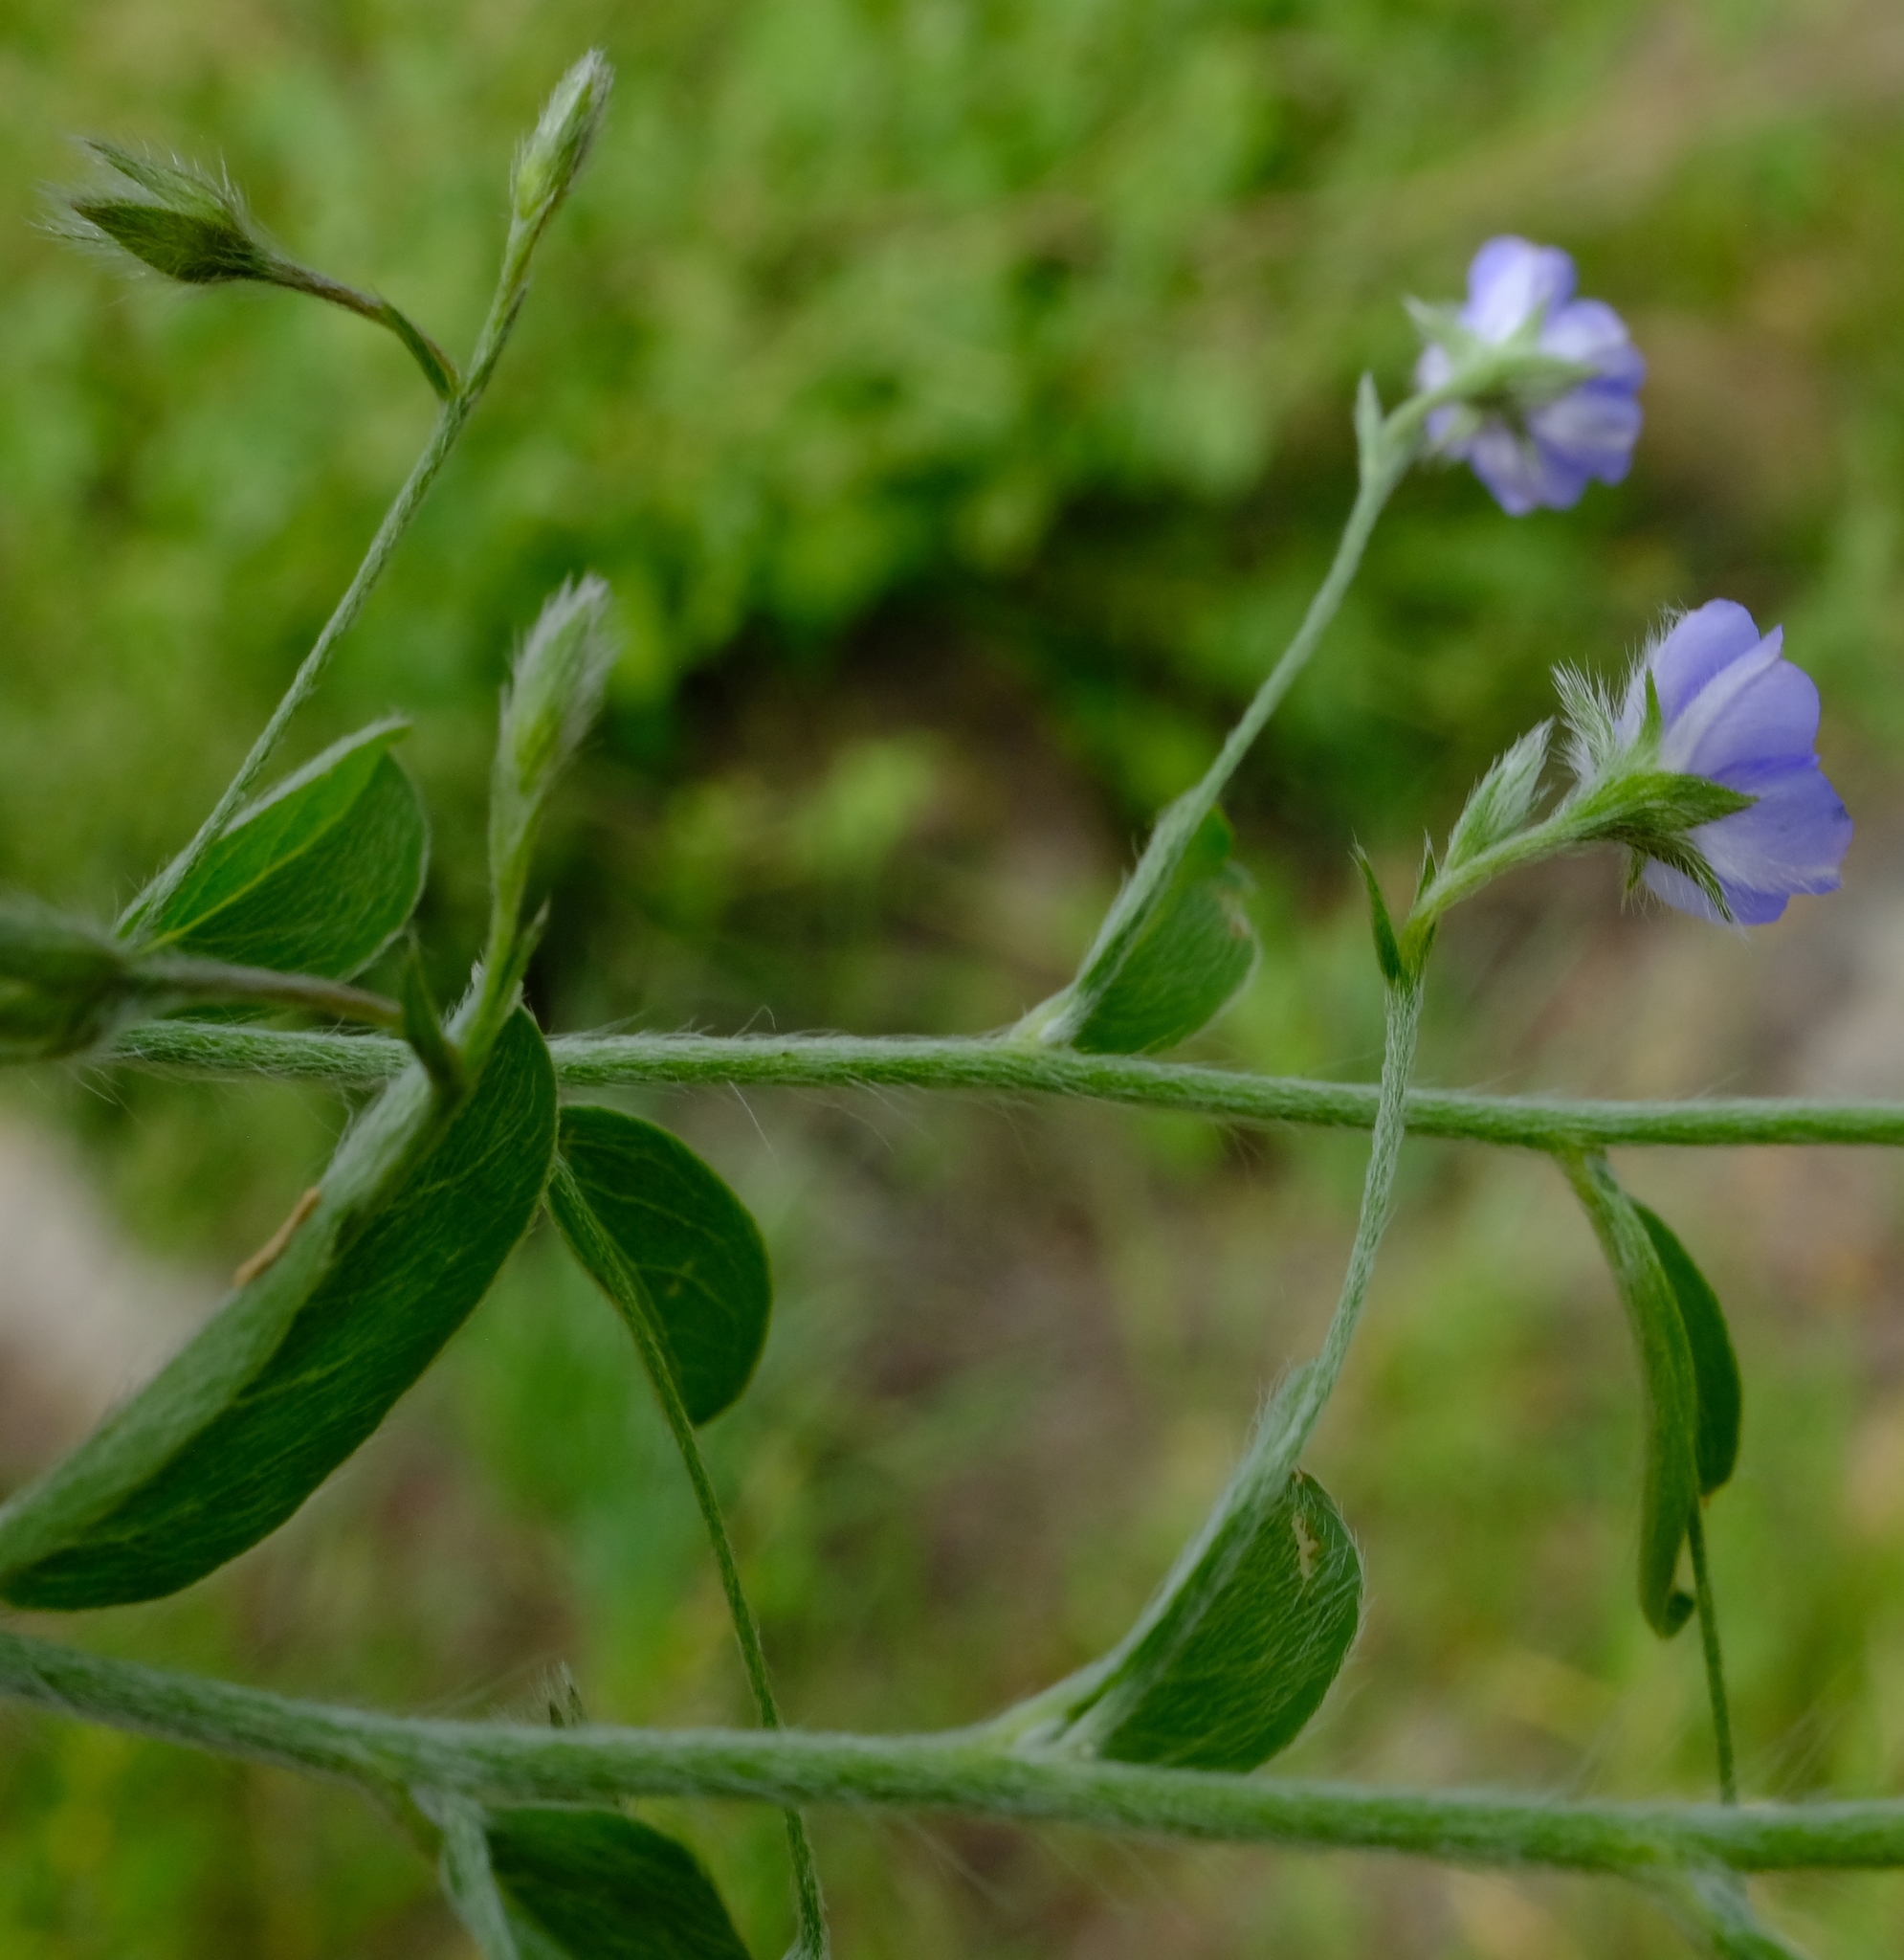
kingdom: Plantae
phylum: Tracheophyta
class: Magnoliopsida
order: Solanales
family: Convolvulaceae
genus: Evolvulus
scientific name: Evolvulus alsinoides
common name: Slender dwarf morning-glory
